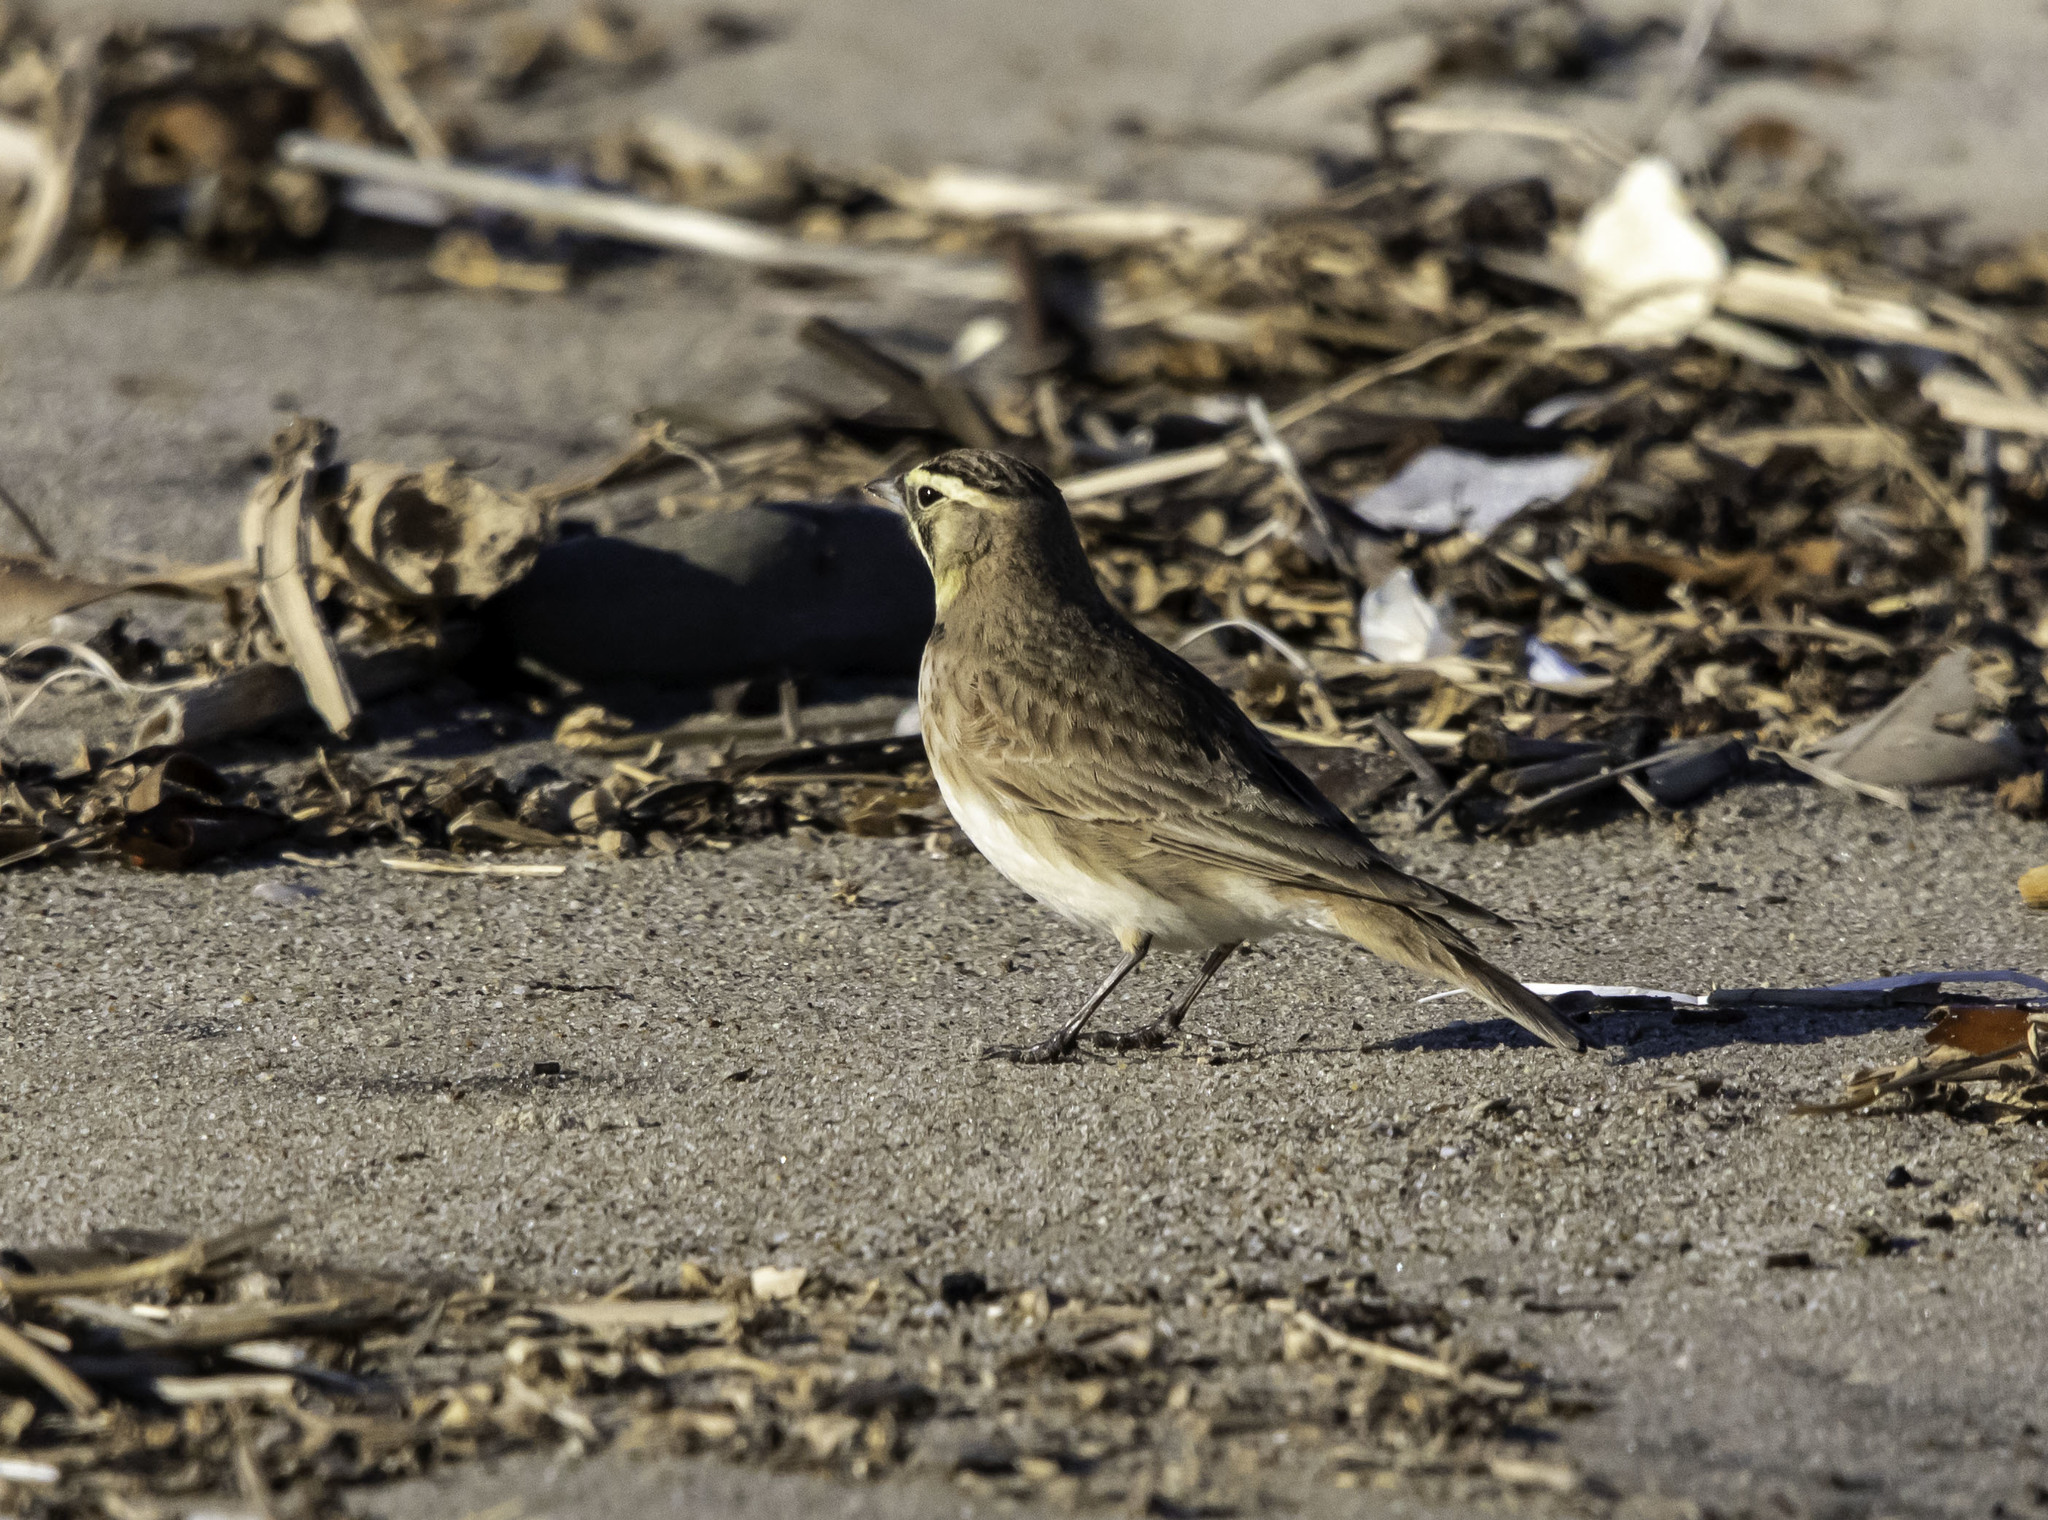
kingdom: Animalia
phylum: Chordata
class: Aves
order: Passeriformes
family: Alaudidae
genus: Eremophila
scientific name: Eremophila alpestris
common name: Horned lark
